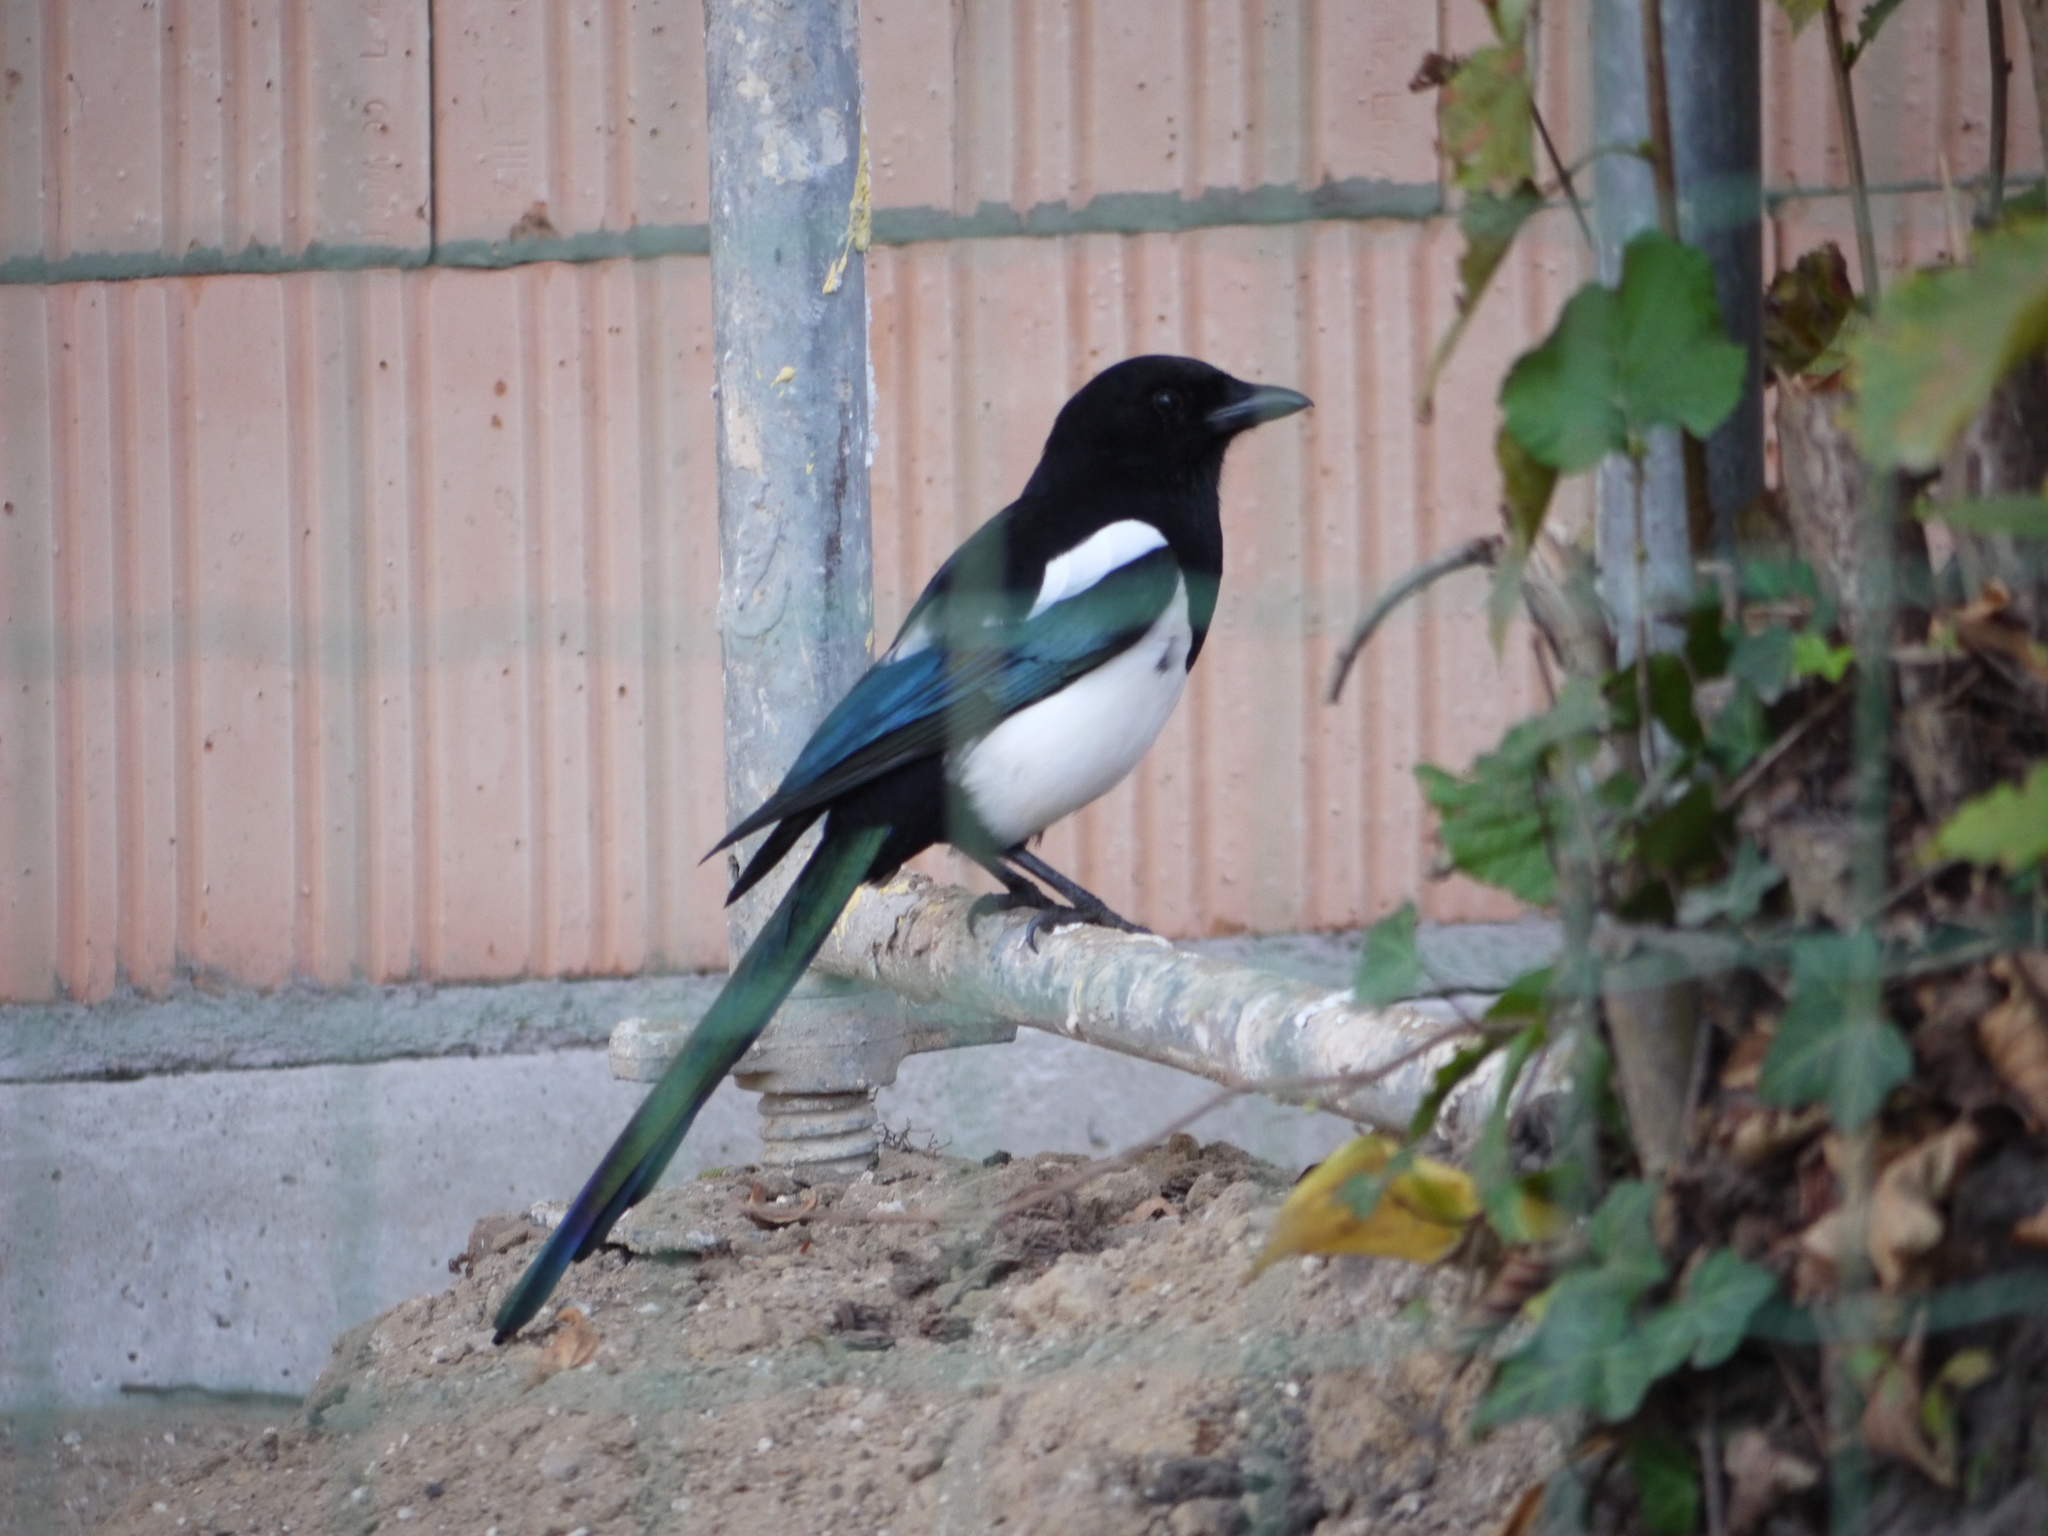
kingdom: Animalia
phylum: Chordata
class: Aves
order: Passeriformes
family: Corvidae
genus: Pica
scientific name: Pica pica
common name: Eurasian magpie
